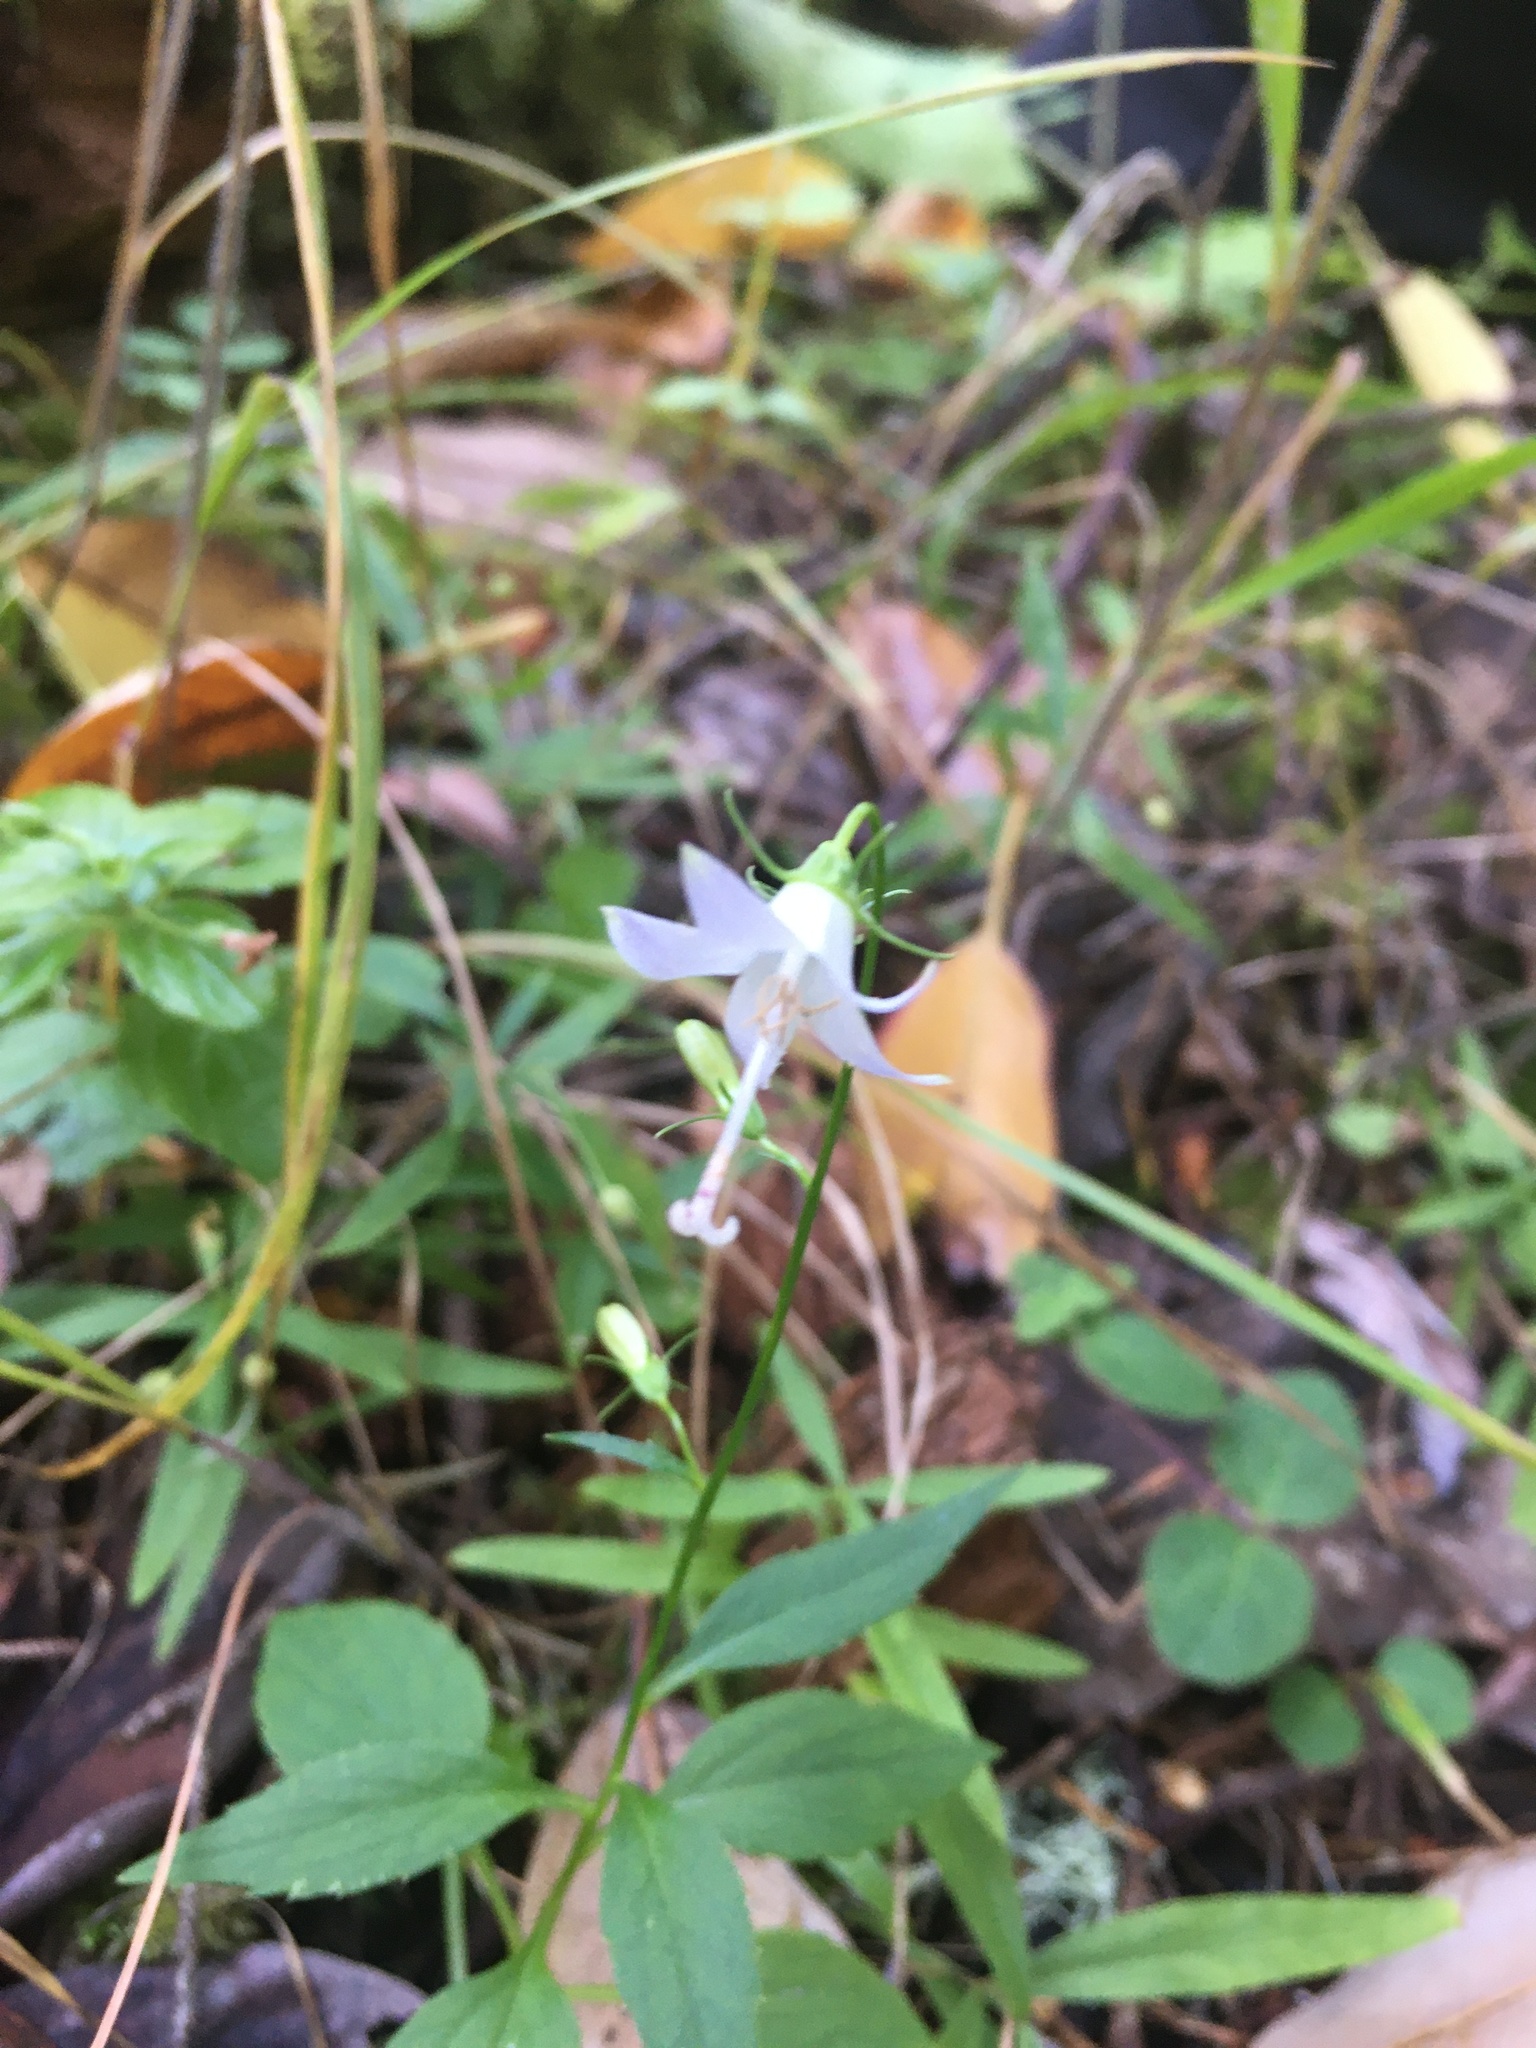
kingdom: Plantae
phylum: Tracheophyta
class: Magnoliopsida
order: Asterales
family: Campanulaceae
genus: Campanula
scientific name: Campanula scouleri
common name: Scouler's harebell
